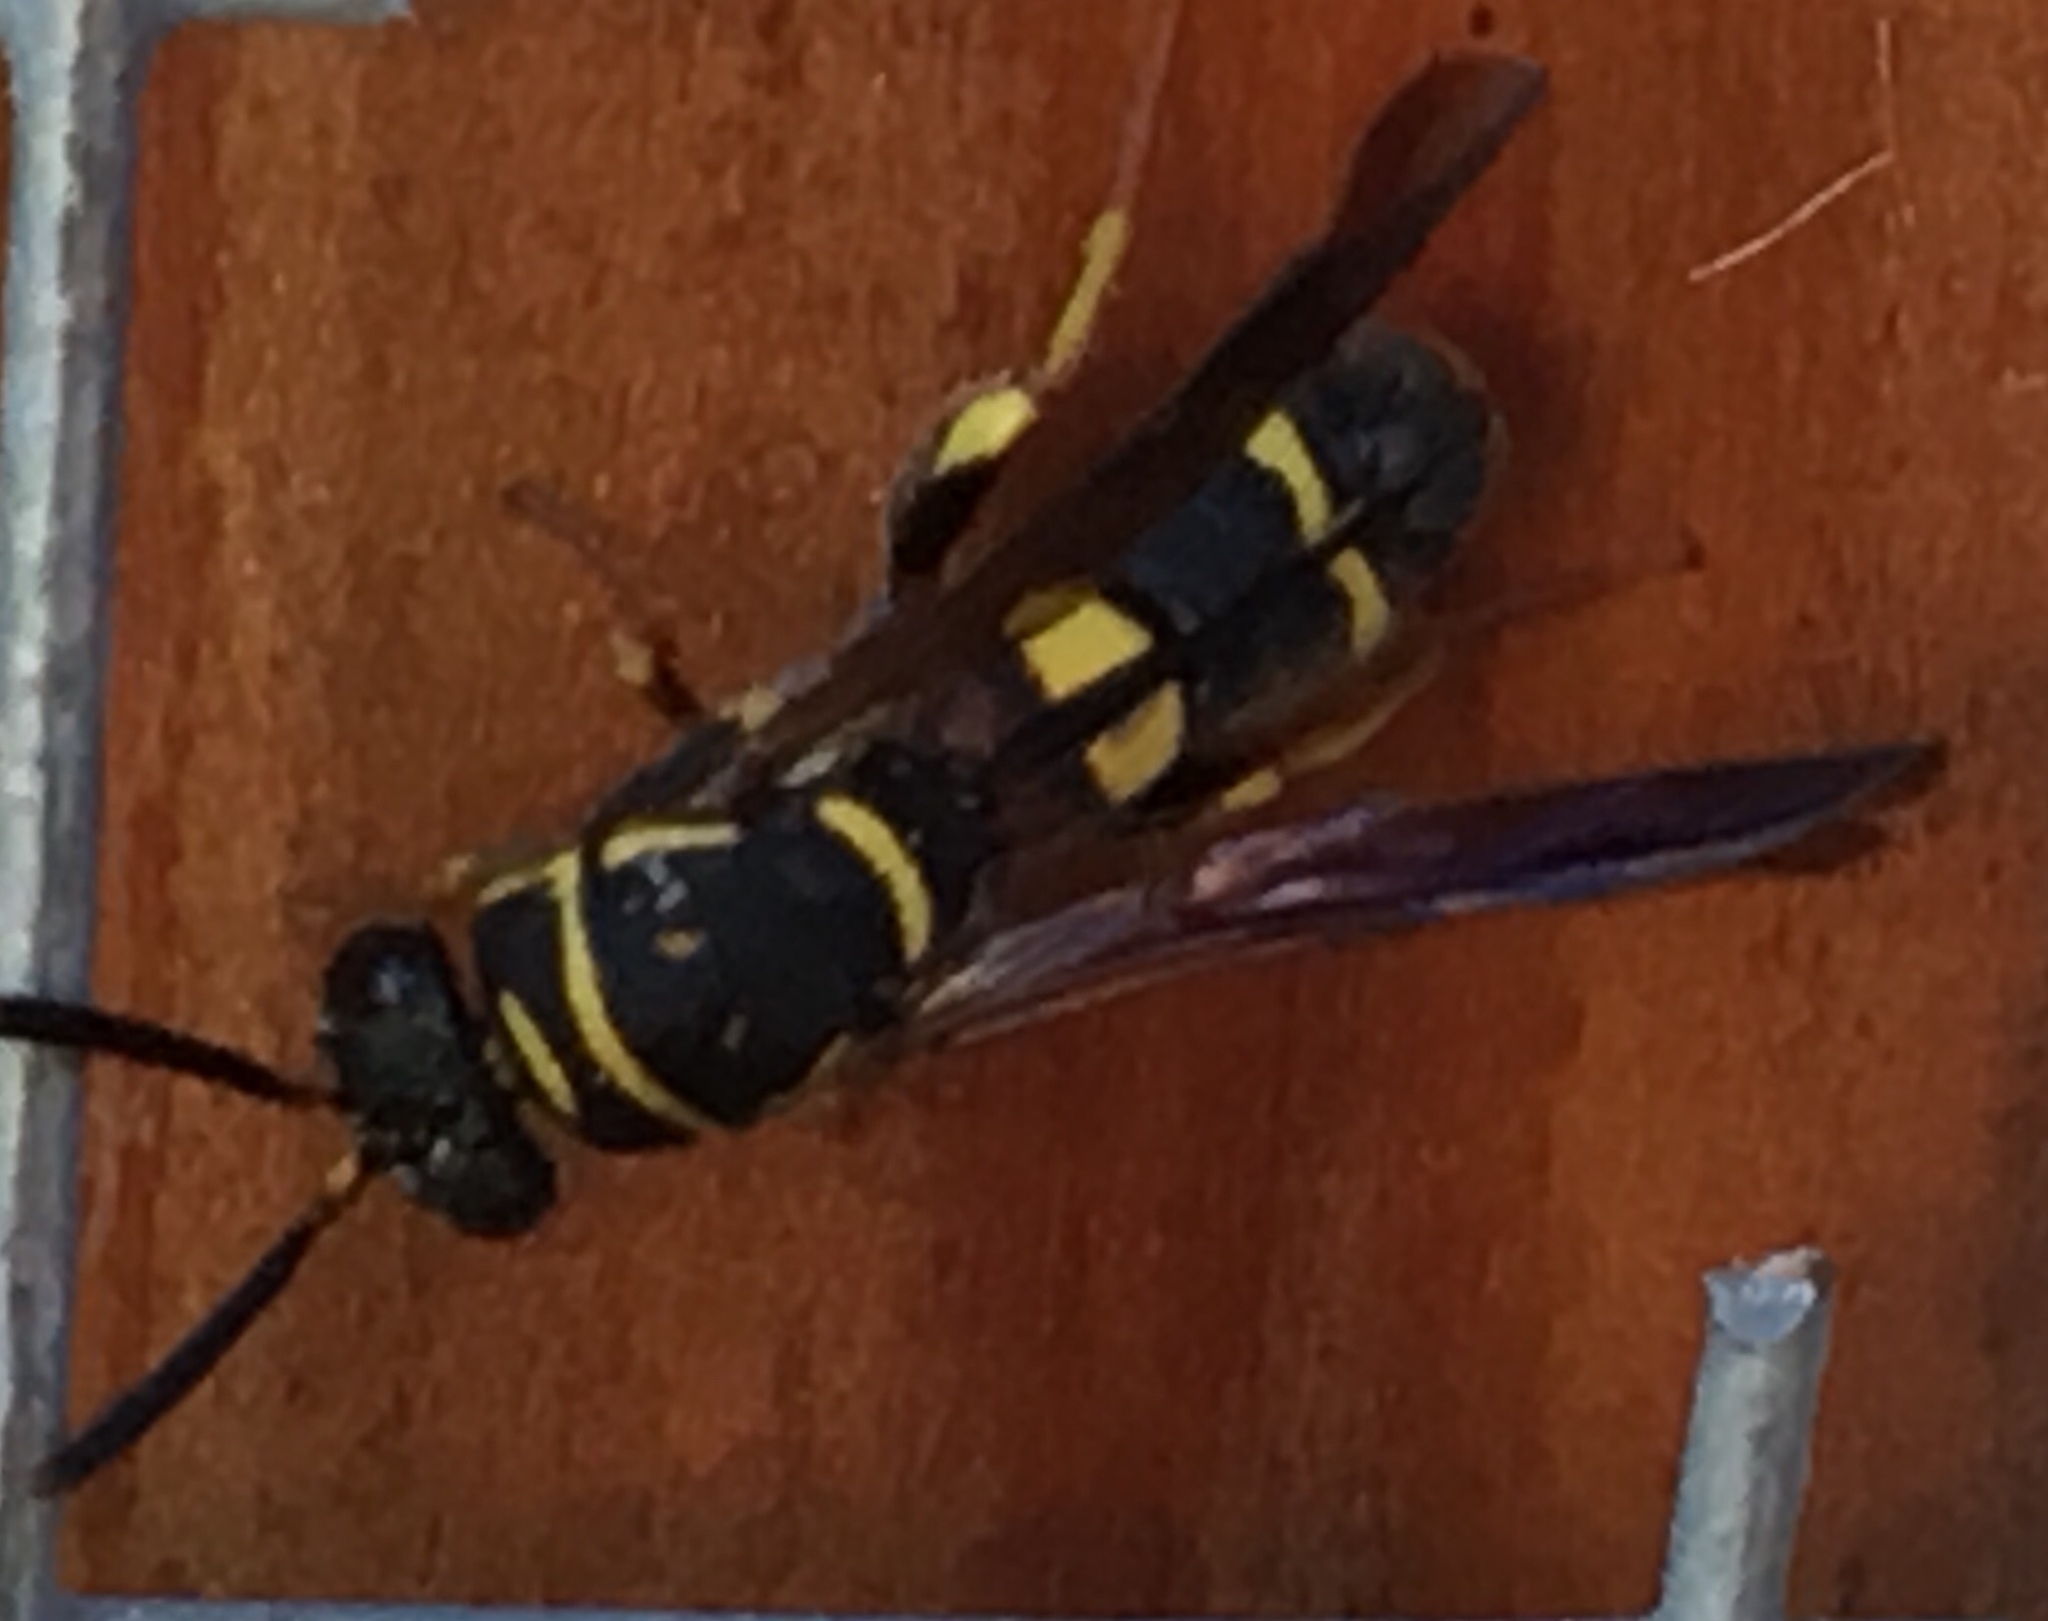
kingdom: Animalia
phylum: Arthropoda
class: Insecta
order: Hymenoptera
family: Leucospidae
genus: Leucospis
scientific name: Leucospis affinis
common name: Wasp
